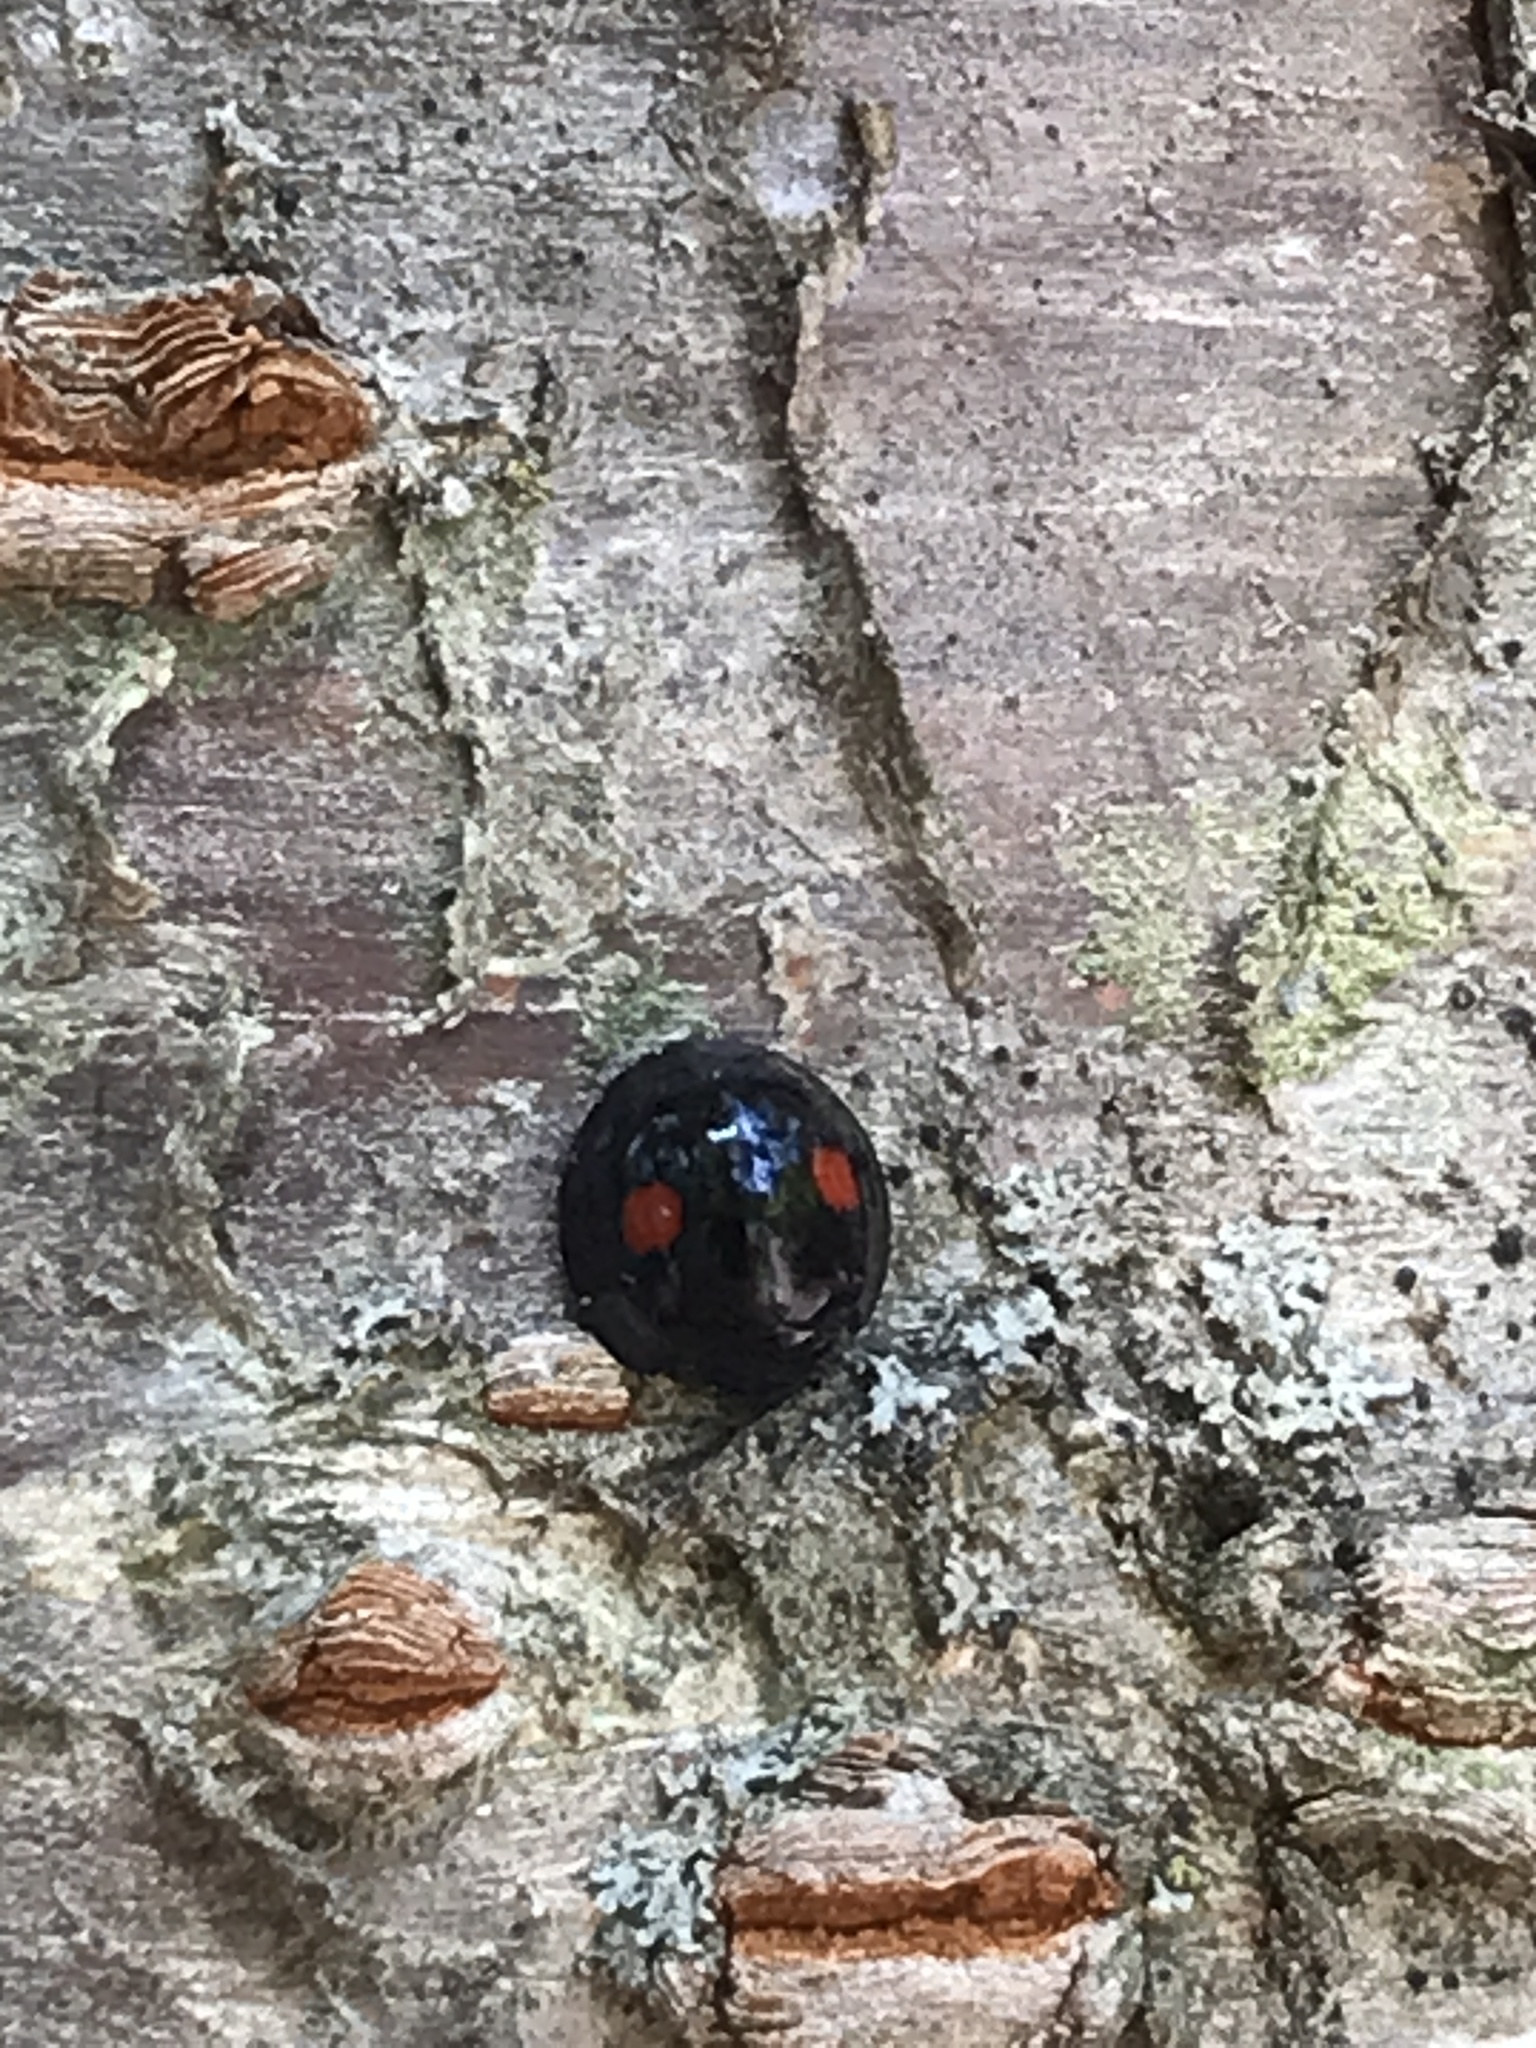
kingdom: Animalia
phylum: Arthropoda
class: Insecta
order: Coleoptera
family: Coccinellidae
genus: Chilocorus
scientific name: Chilocorus stigma
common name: Twicestabbed lady beetle
